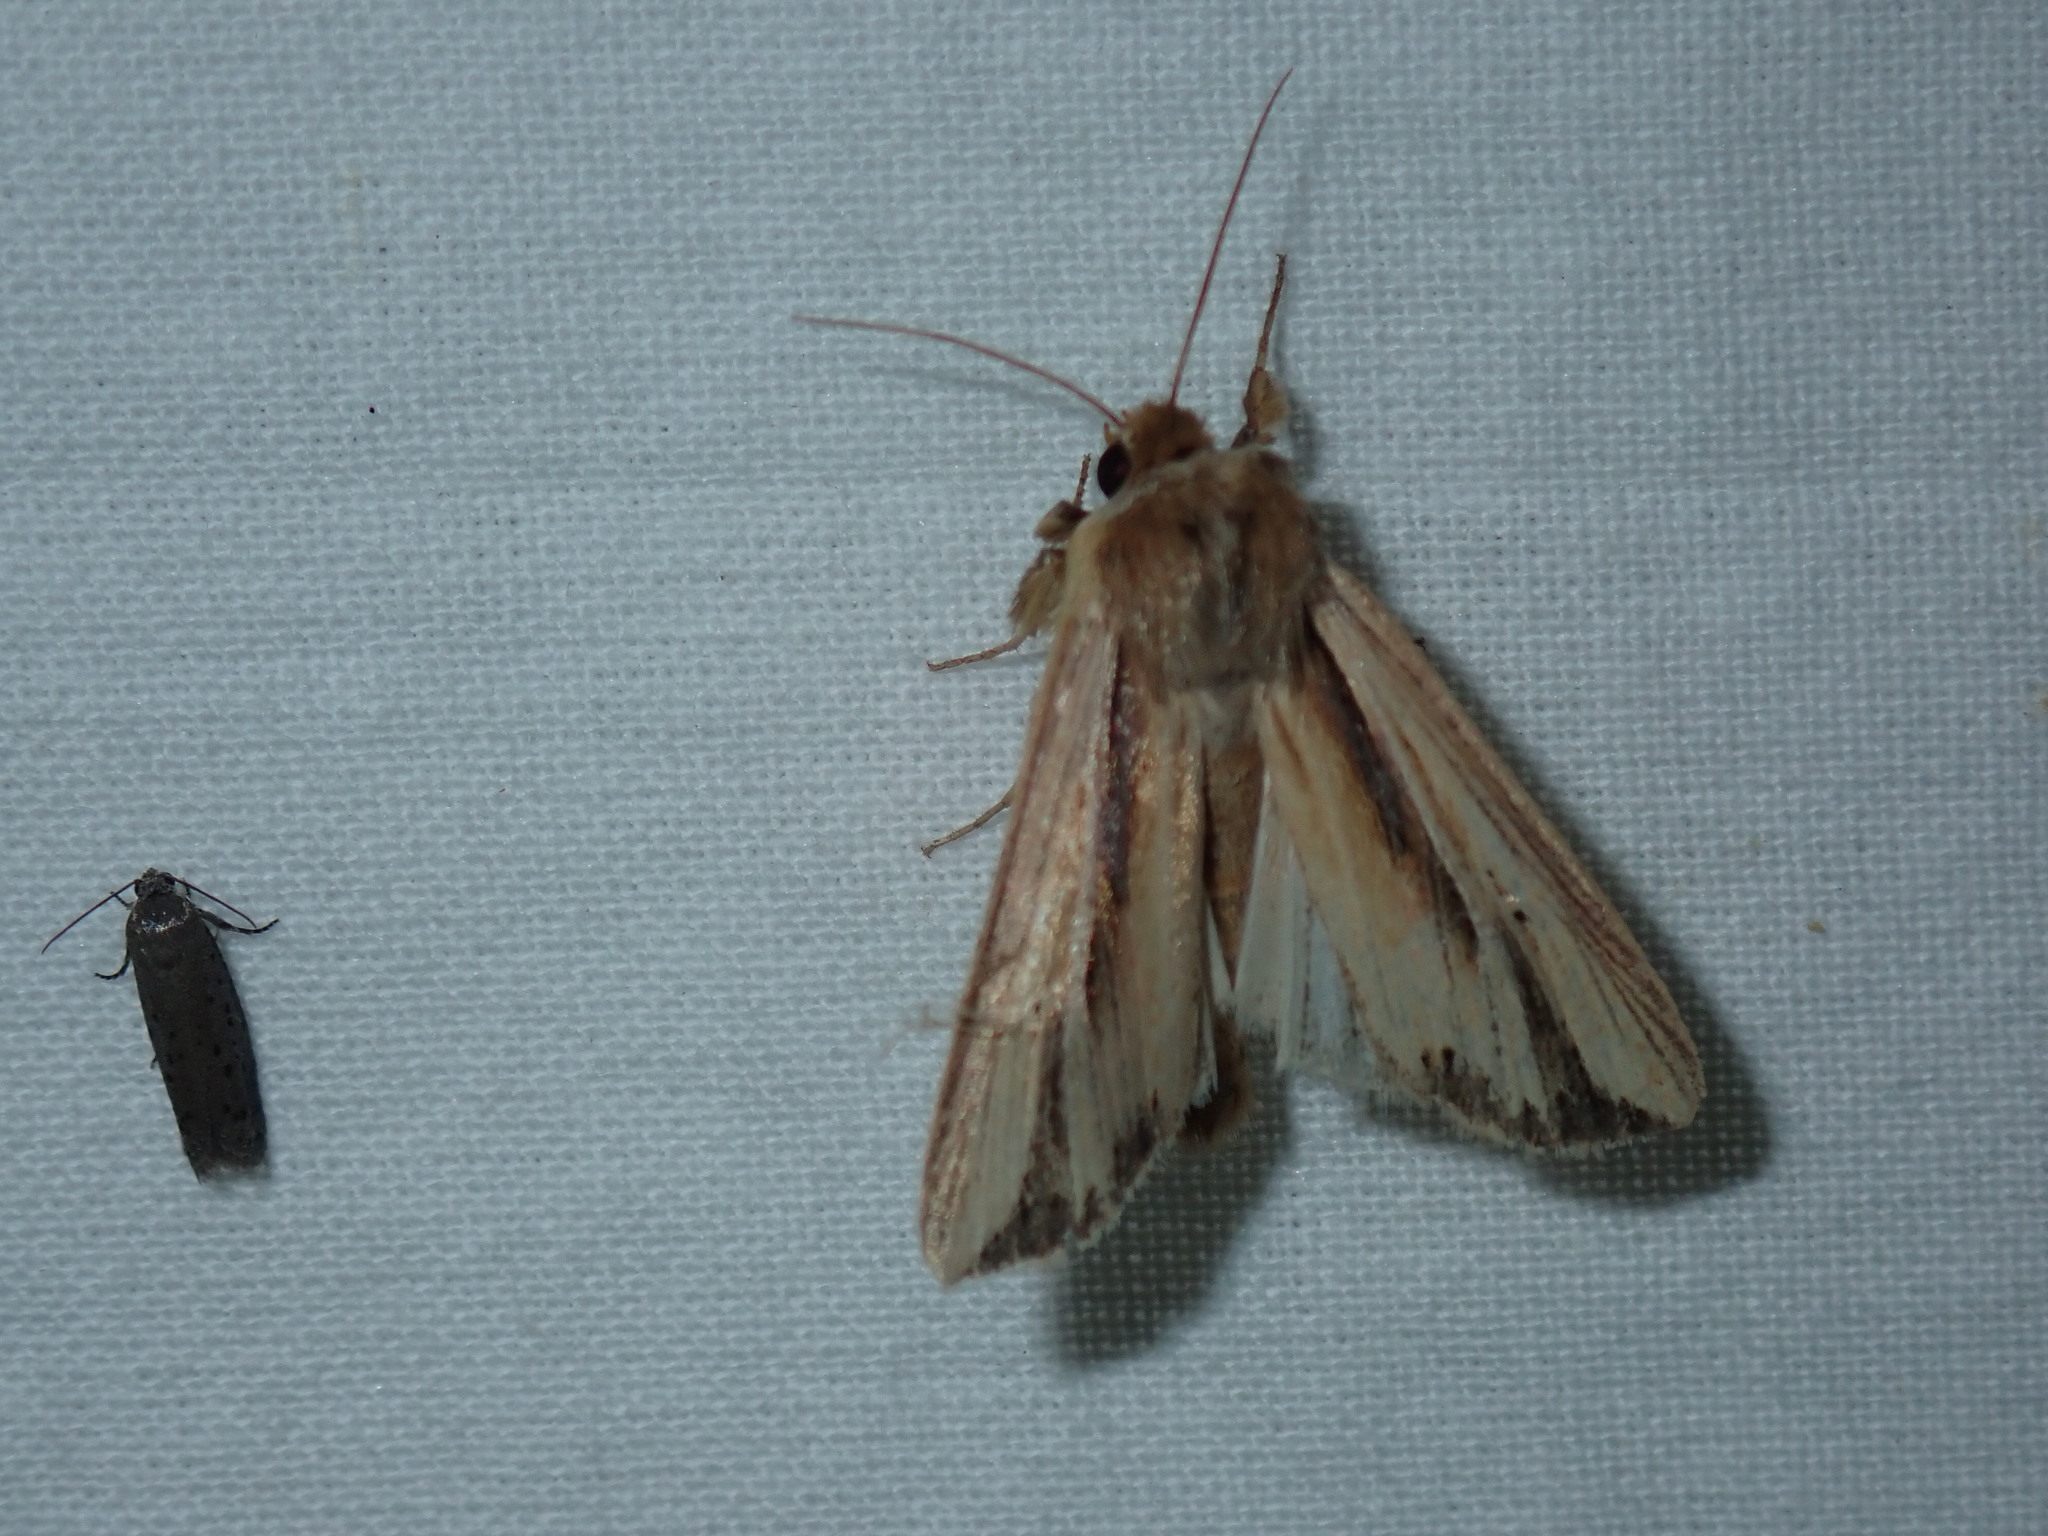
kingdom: Animalia
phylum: Arthropoda
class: Insecta
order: Lepidoptera
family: Noctuidae
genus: Dargida
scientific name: Dargida diffusa
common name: Wheat head armyworm
